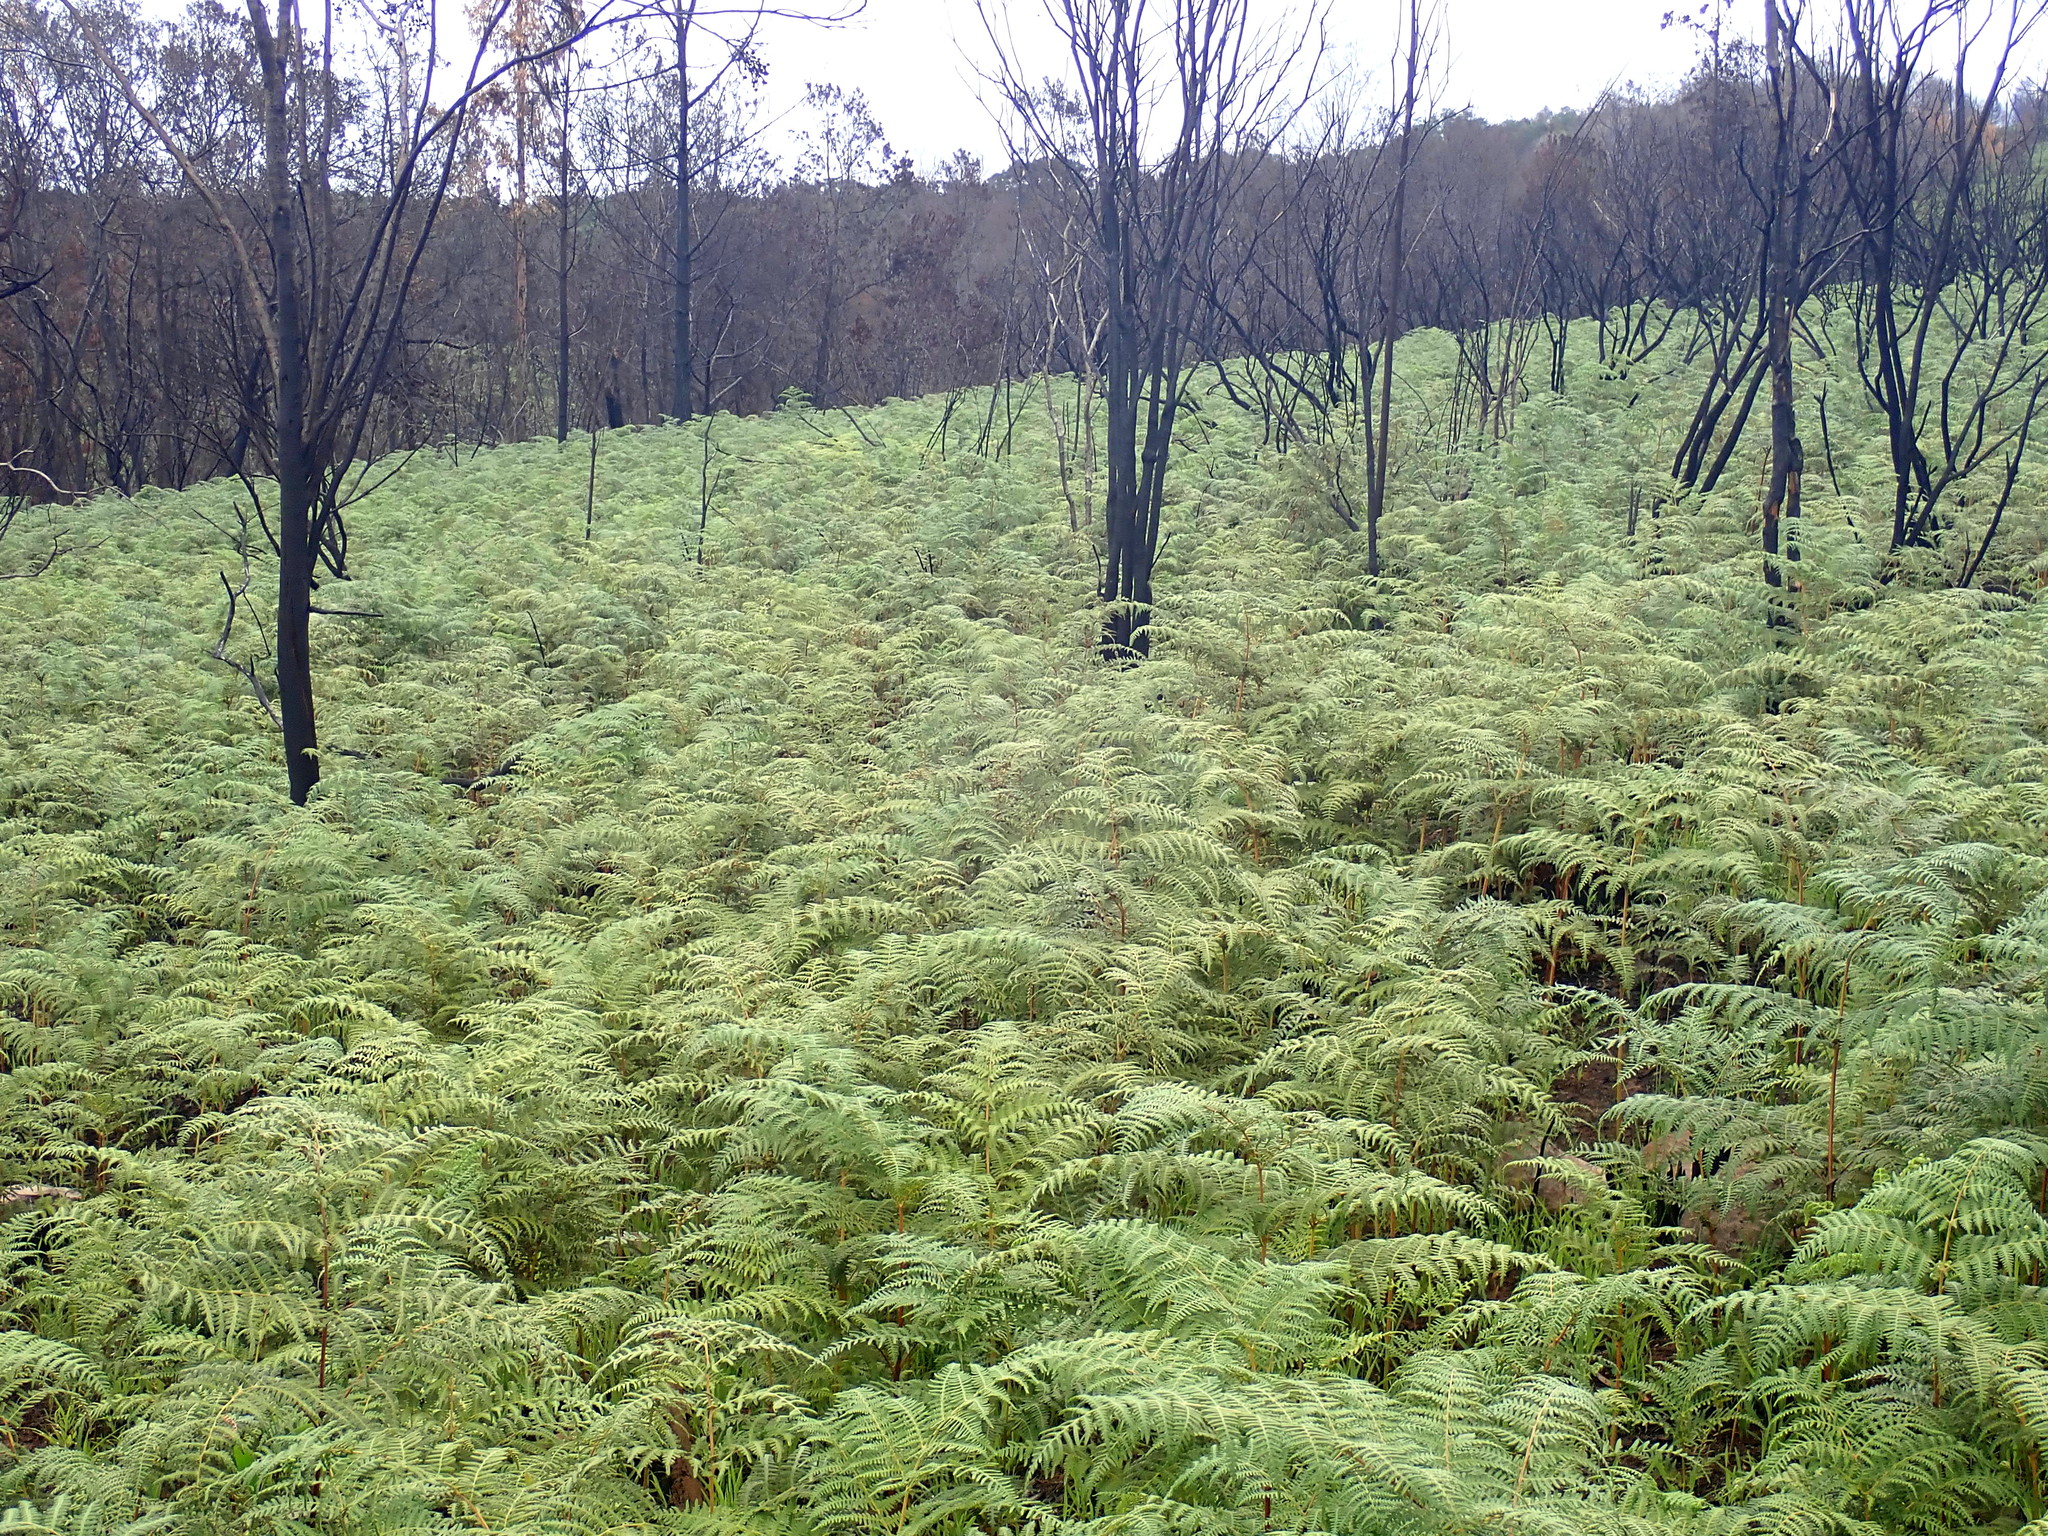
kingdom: Plantae
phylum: Tracheophyta
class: Polypodiopsida
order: Polypodiales
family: Dennstaedtiaceae
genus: Pteridium
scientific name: Pteridium aquilinum
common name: Bracken
